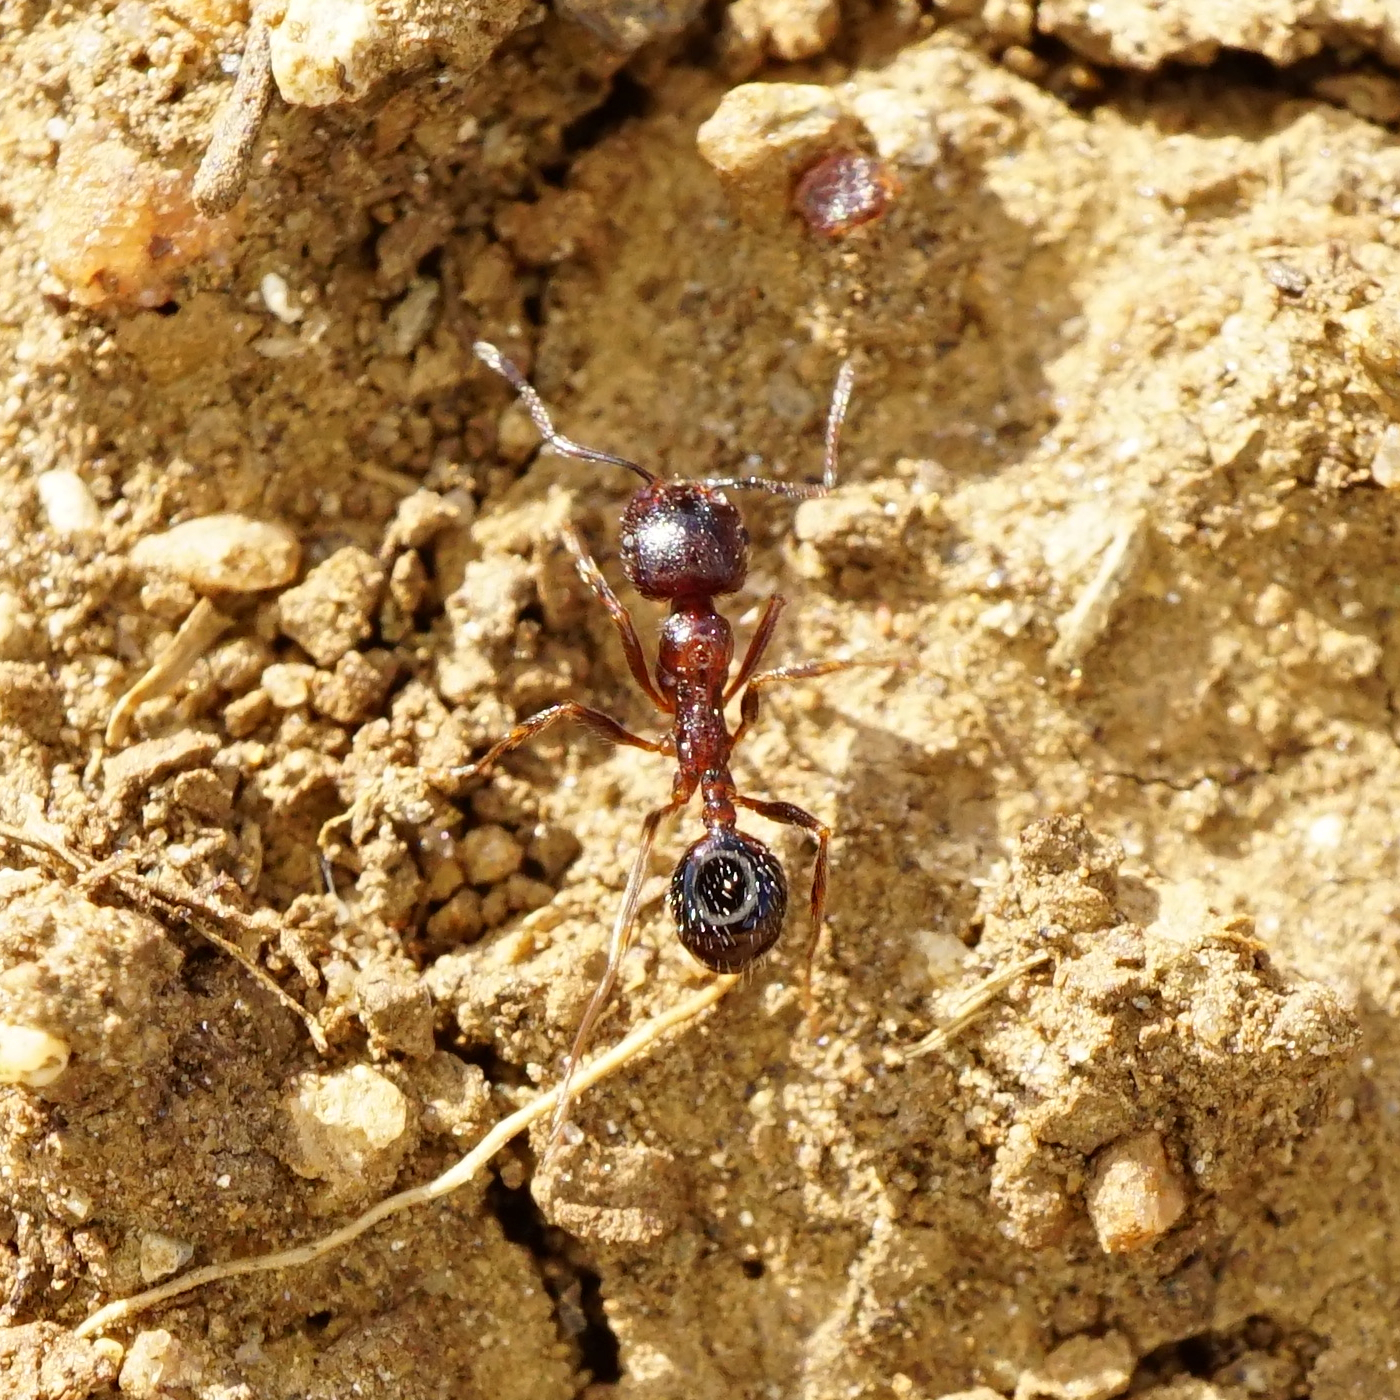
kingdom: Animalia
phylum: Arthropoda
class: Insecta
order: Hymenoptera
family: Formicidae
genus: Messor
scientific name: Messor structor
